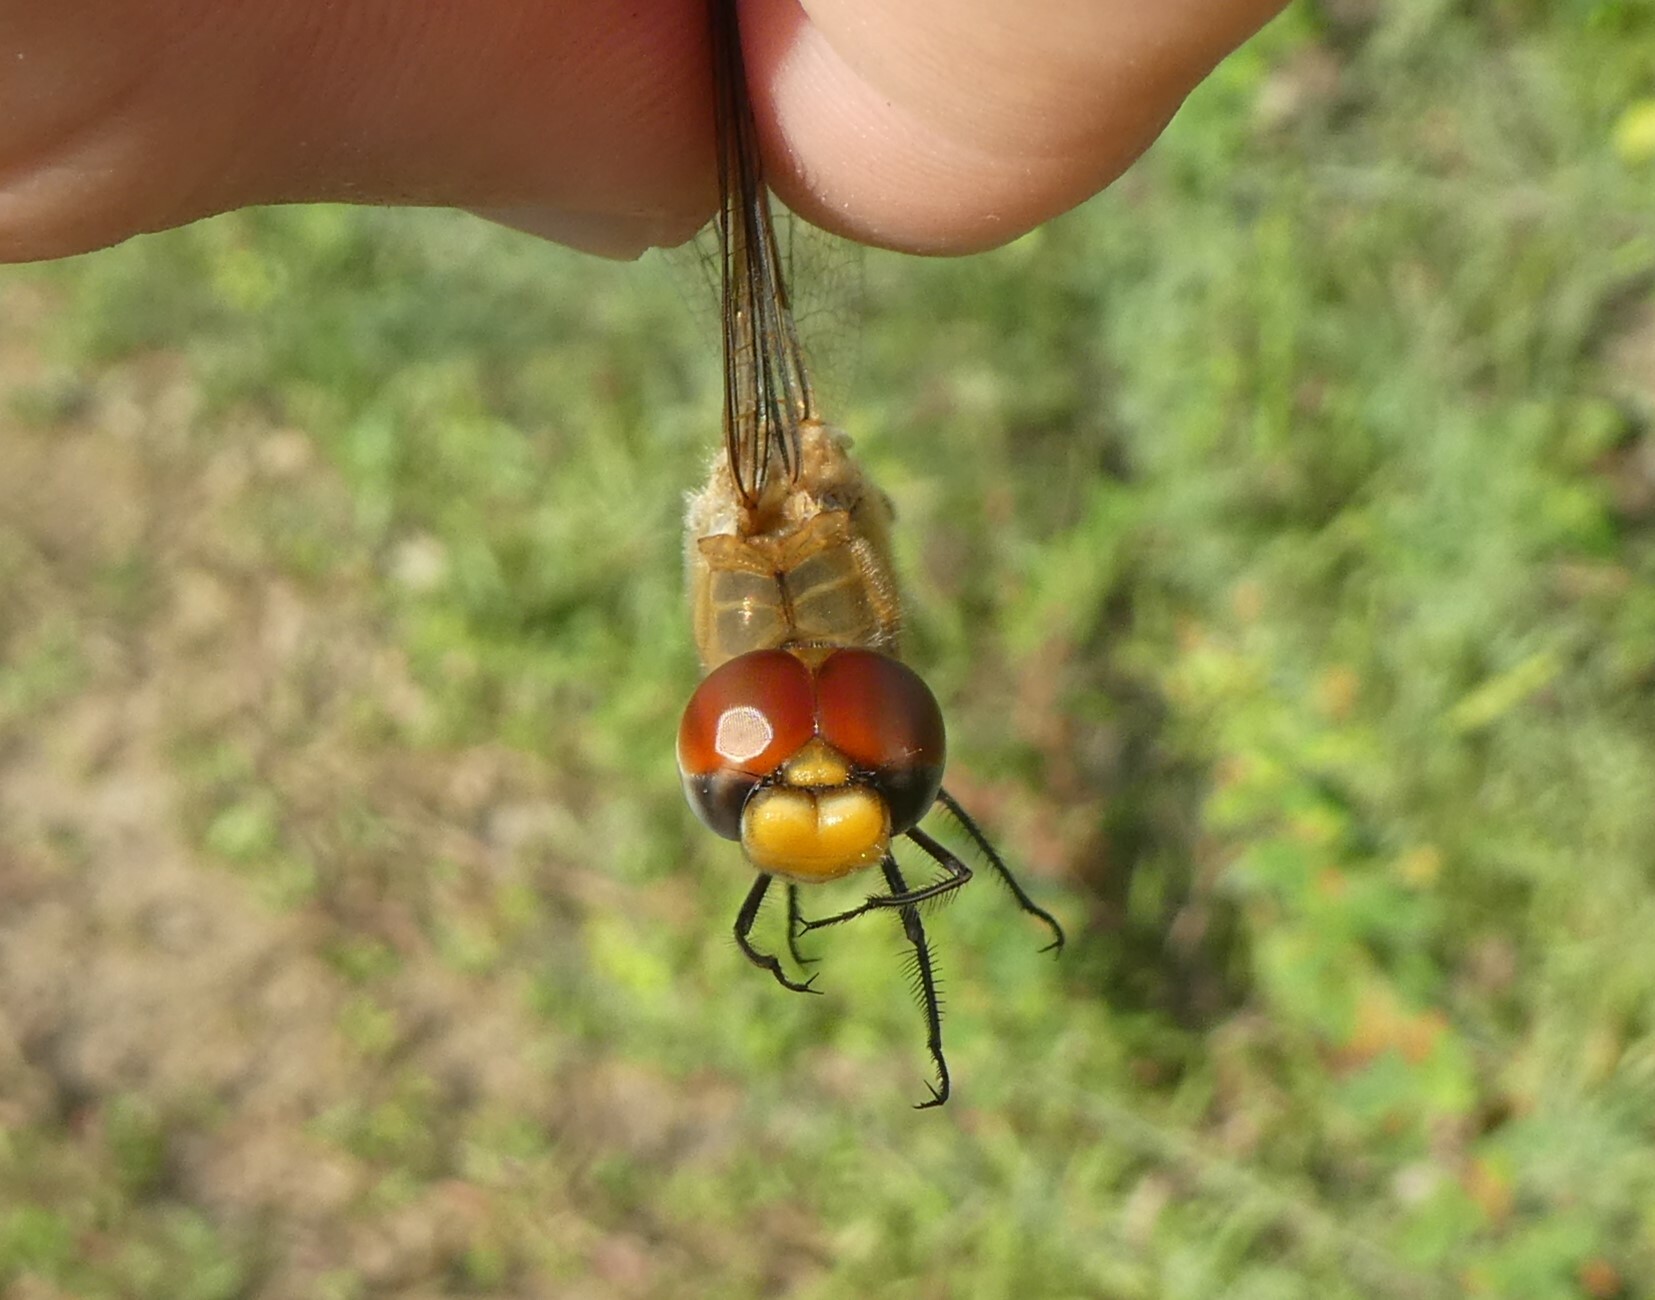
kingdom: Animalia
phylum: Arthropoda
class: Insecta
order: Odonata
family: Libellulidae
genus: Pantala
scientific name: Pantala flavescens
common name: Wandering glider
